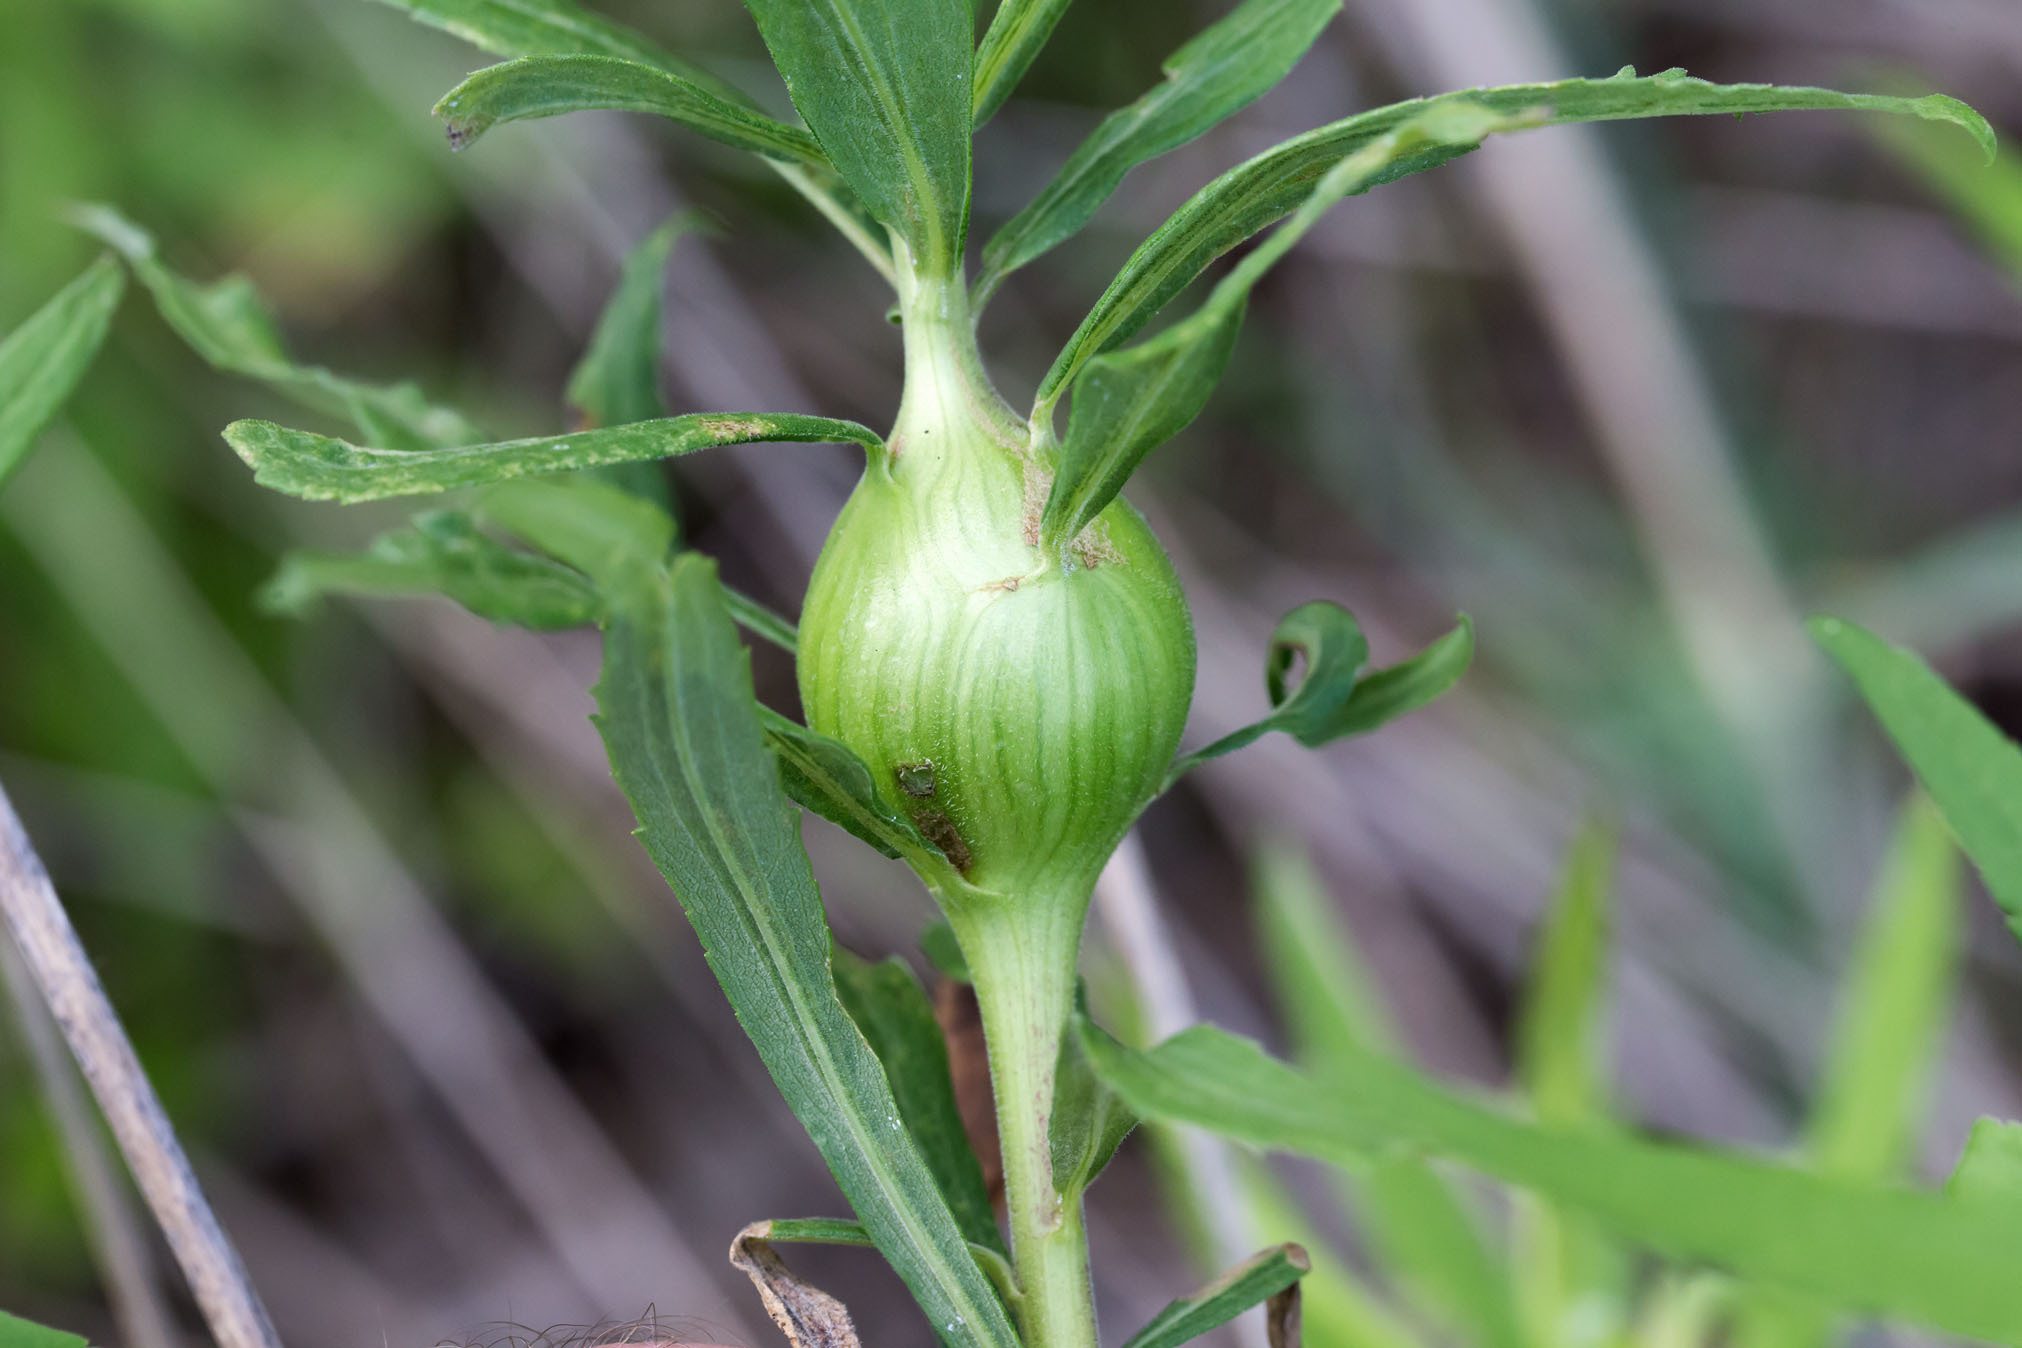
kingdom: Animalia
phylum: Arthropoda
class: Insecta
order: Diptera
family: Tephritidae
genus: Eurosta
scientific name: Eurosta solidaginis
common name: Goldenrod gall fly
